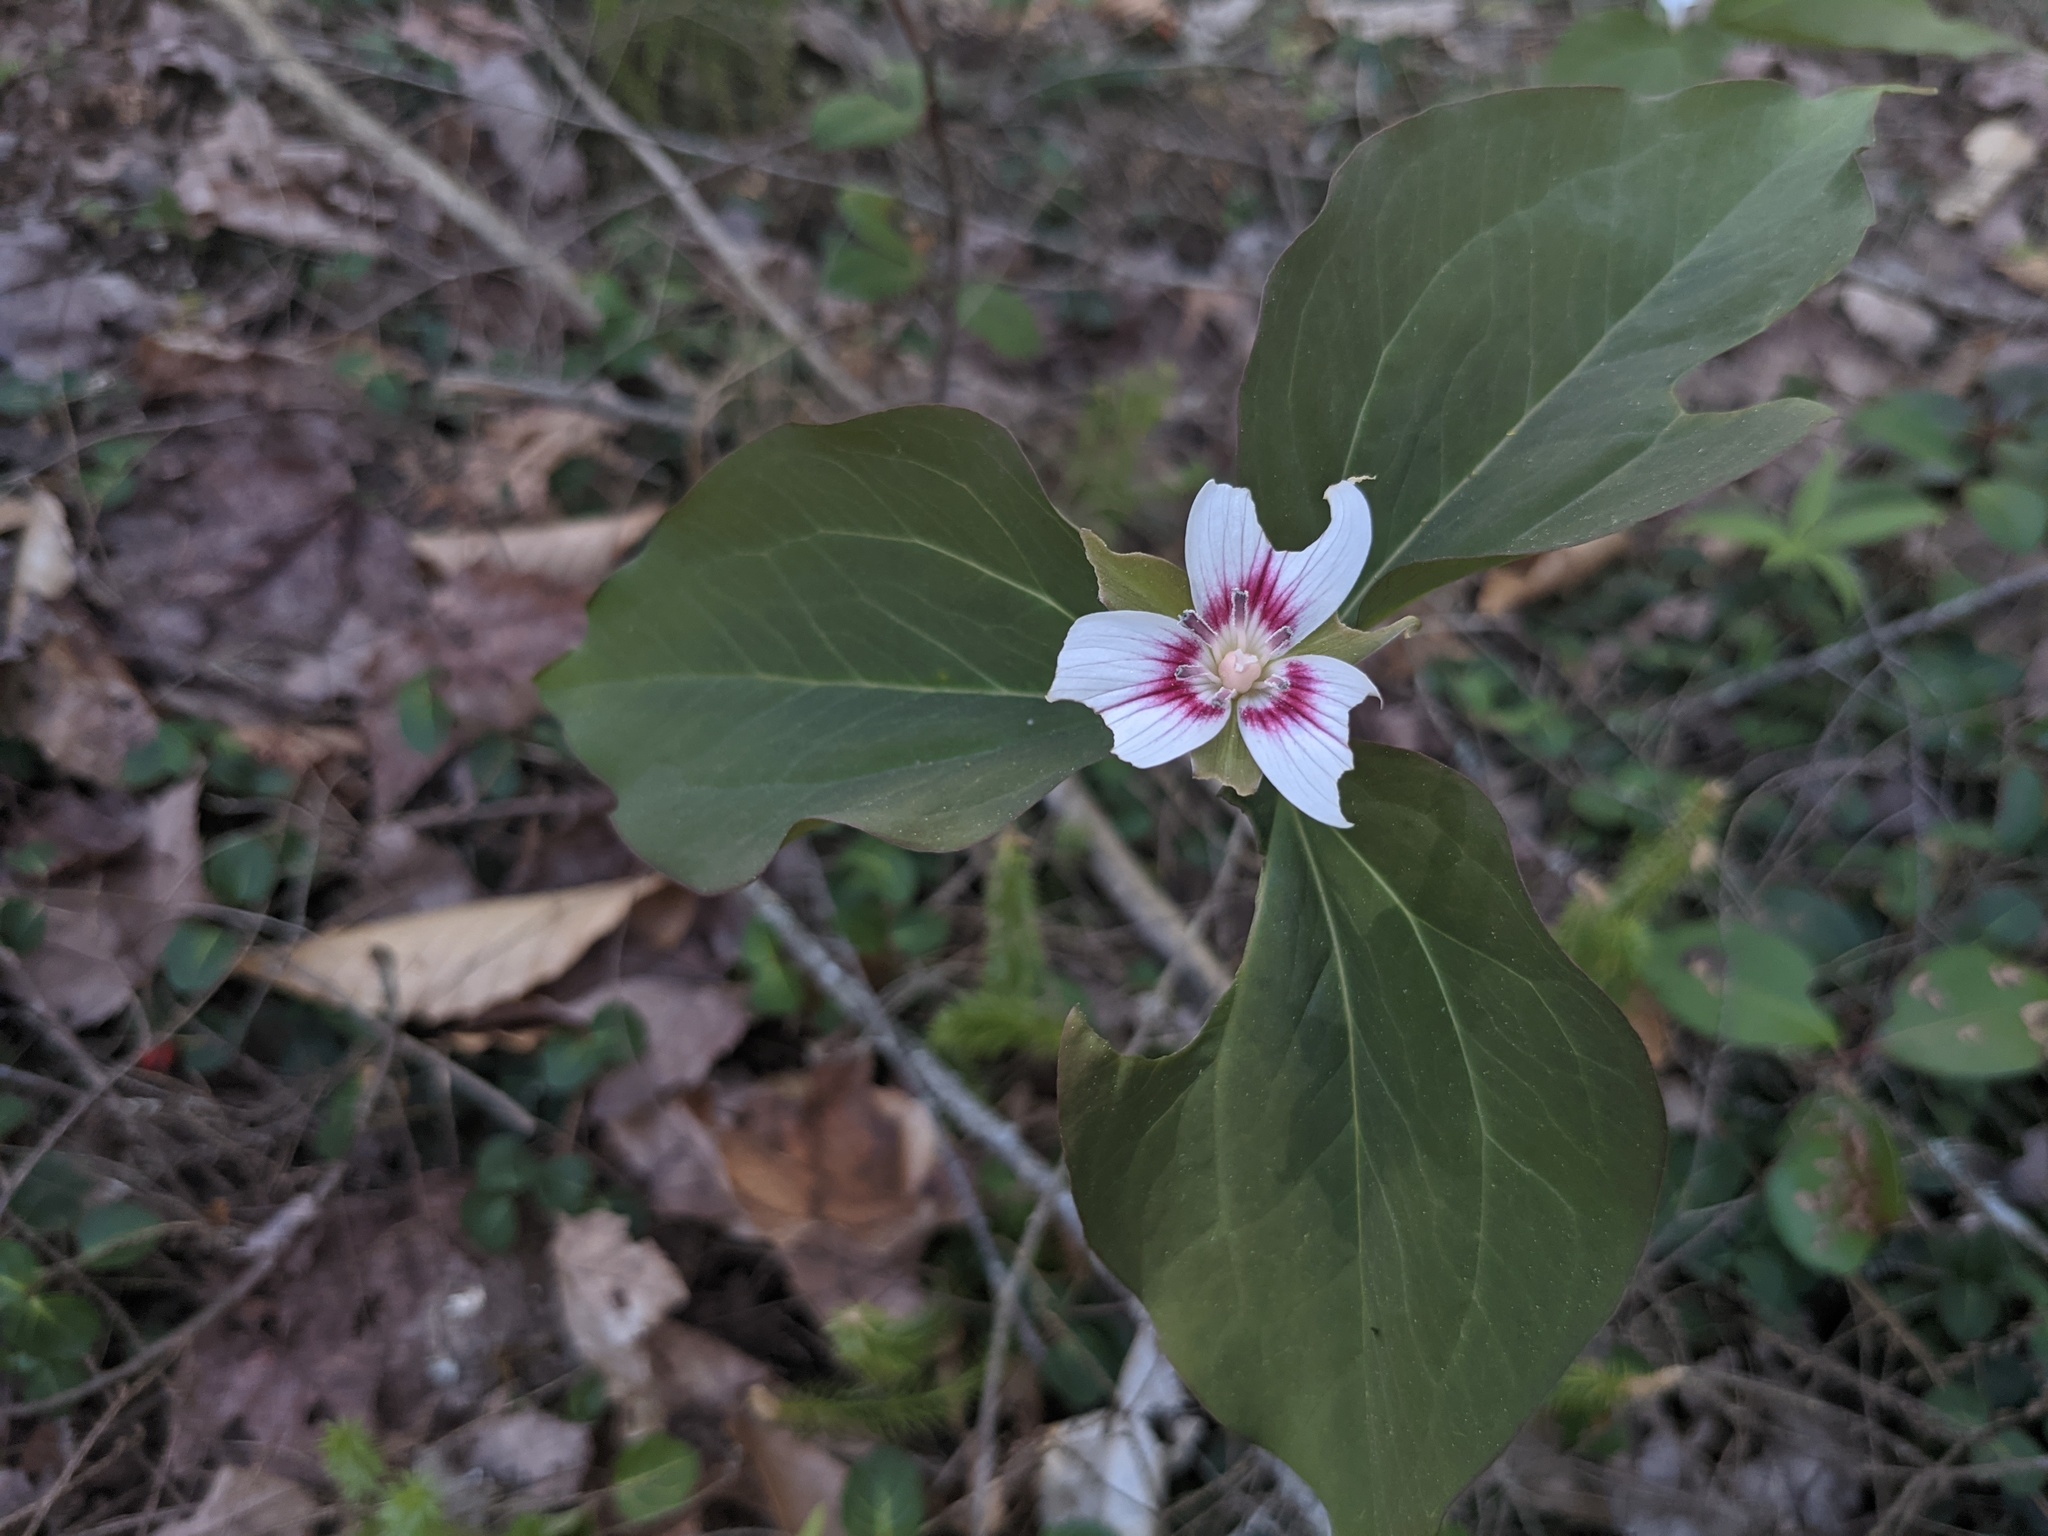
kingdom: Plantae
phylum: Tracheophyta
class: Liliopsida
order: Liliales
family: Melanthiaceae
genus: Trillium
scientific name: Trillium undulatum
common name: Paint trillium
